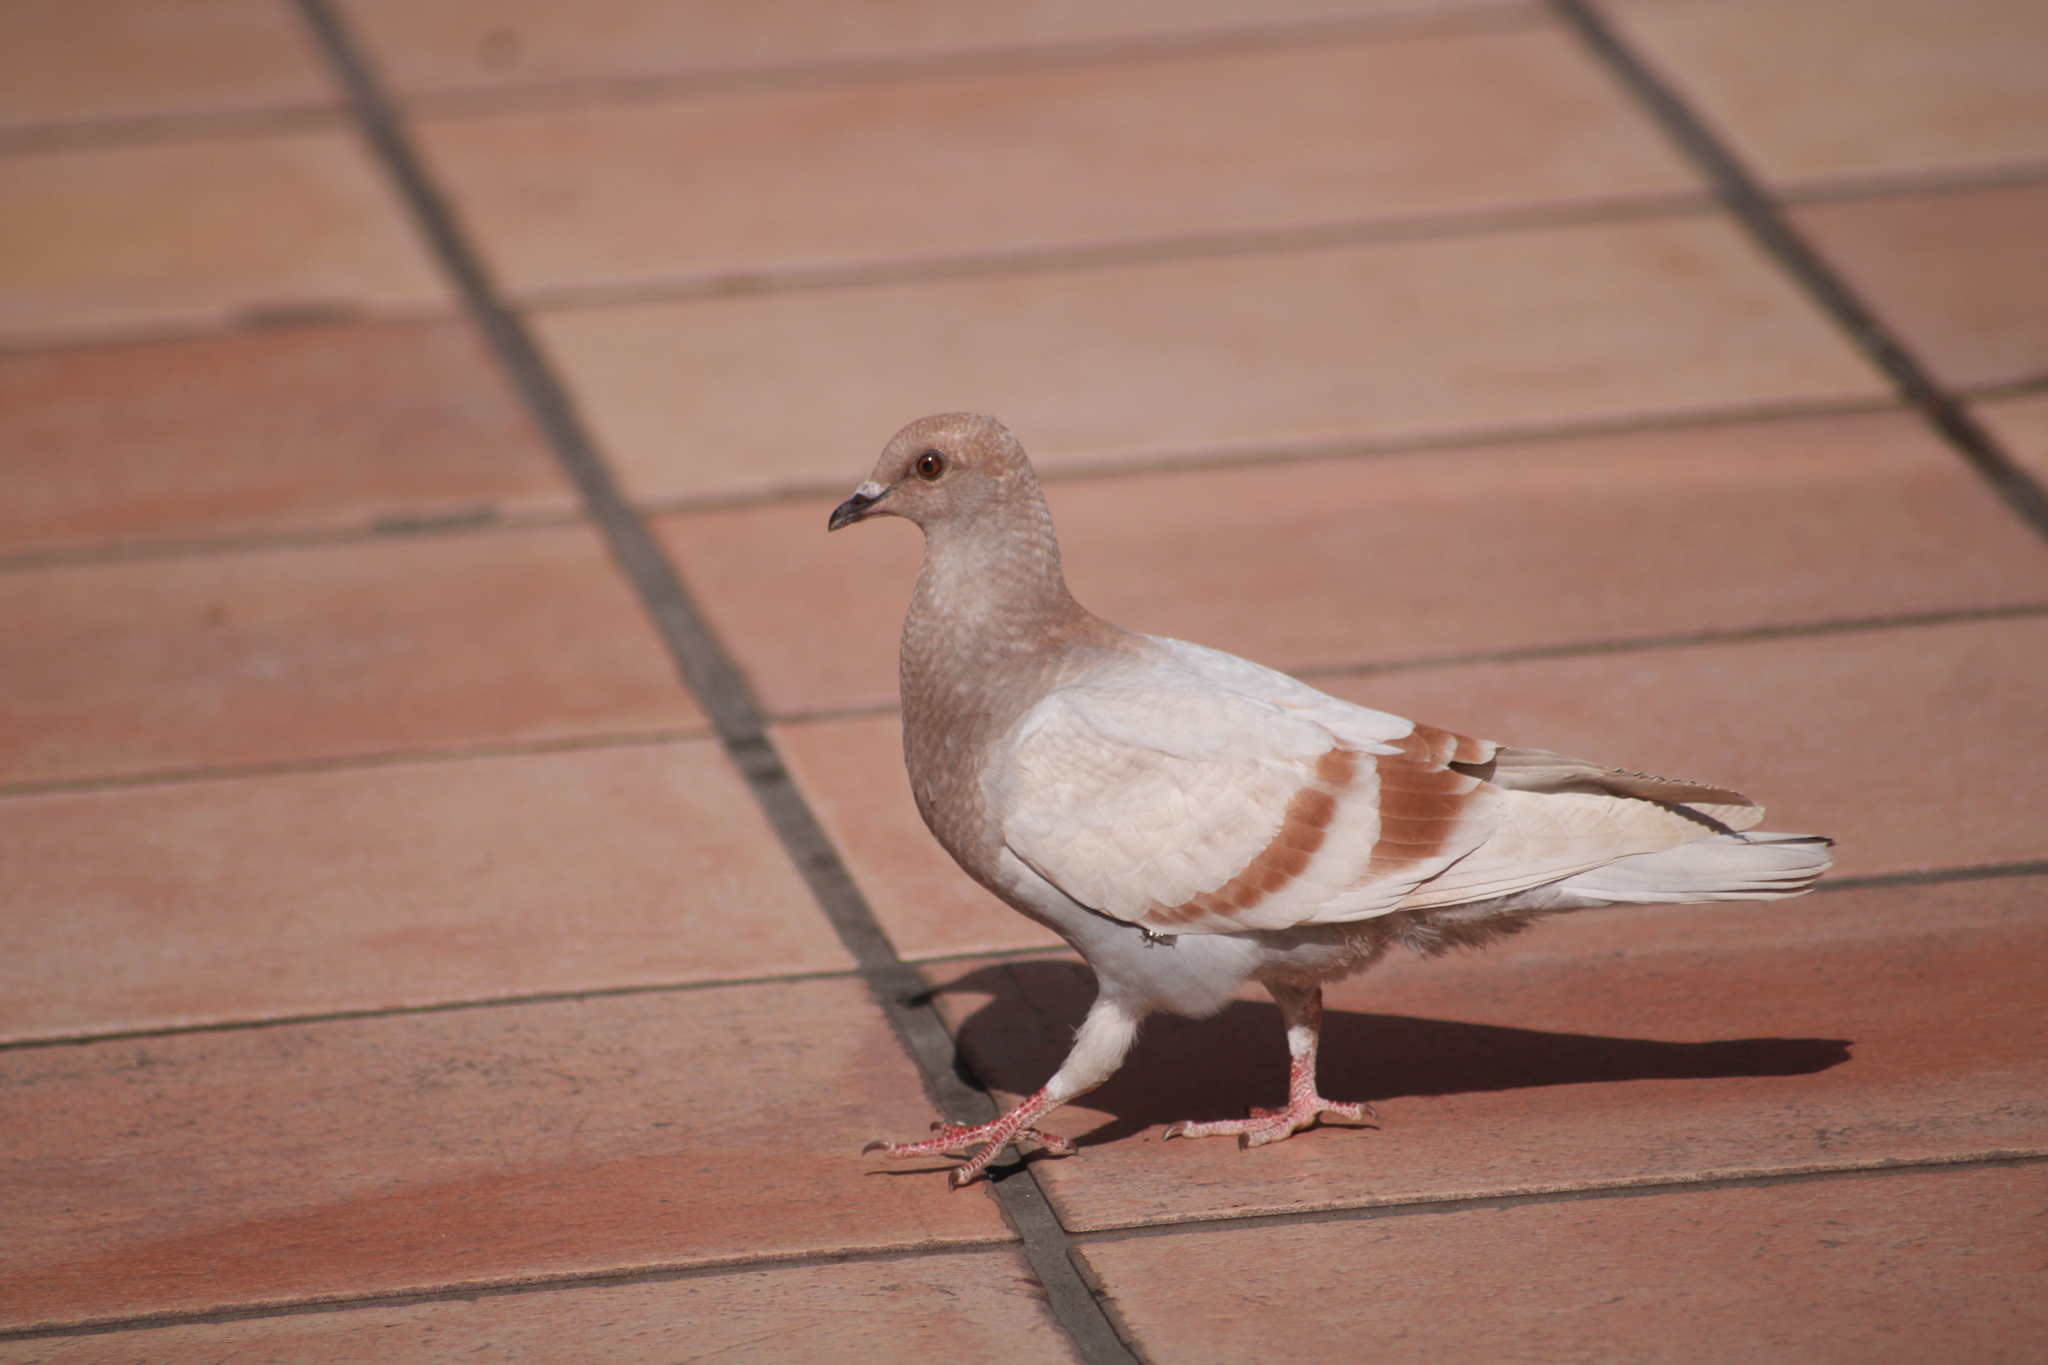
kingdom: Animalia
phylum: Chordata
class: Aves
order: Columbiformes
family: Columbidae
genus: Columba
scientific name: Columba livia
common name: Rock pigeon
